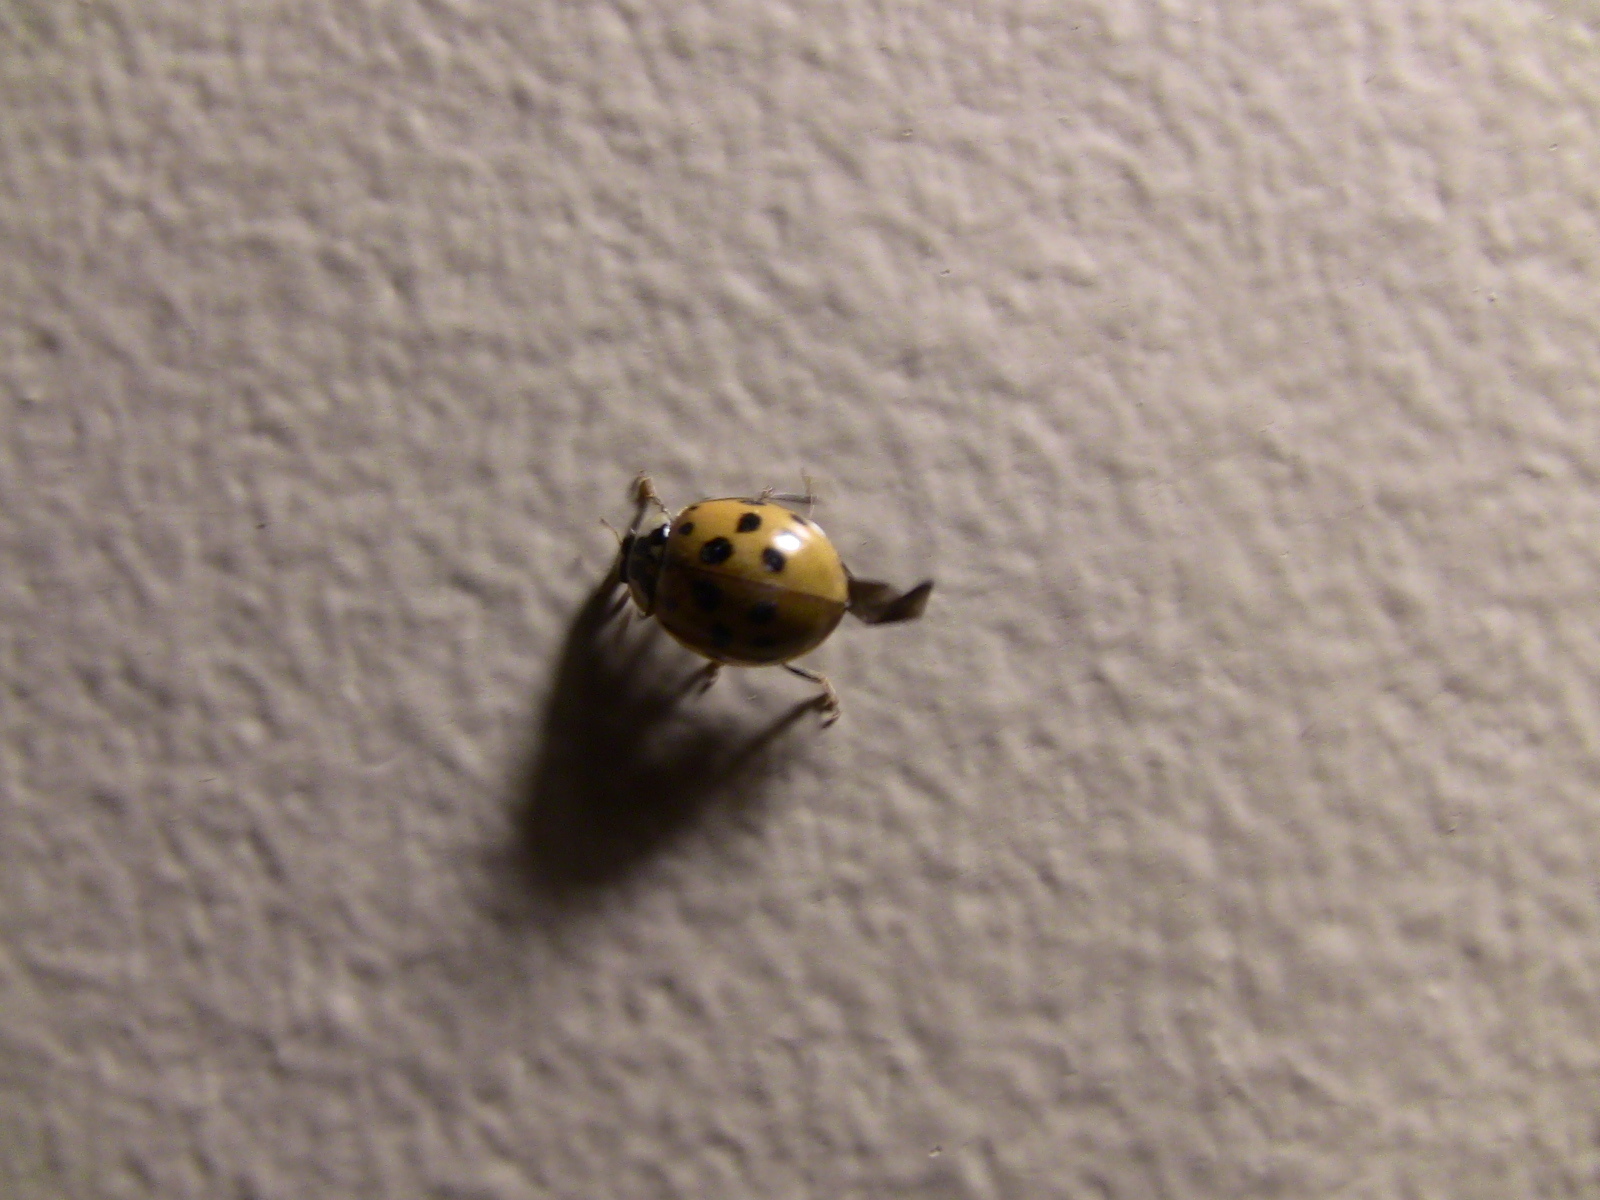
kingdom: Animalia
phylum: Arthropoda
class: Insecta
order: Coleoptera
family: Coccinellidae
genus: Harmonia
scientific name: Harmonia axyridis
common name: Harlequin ladybird
